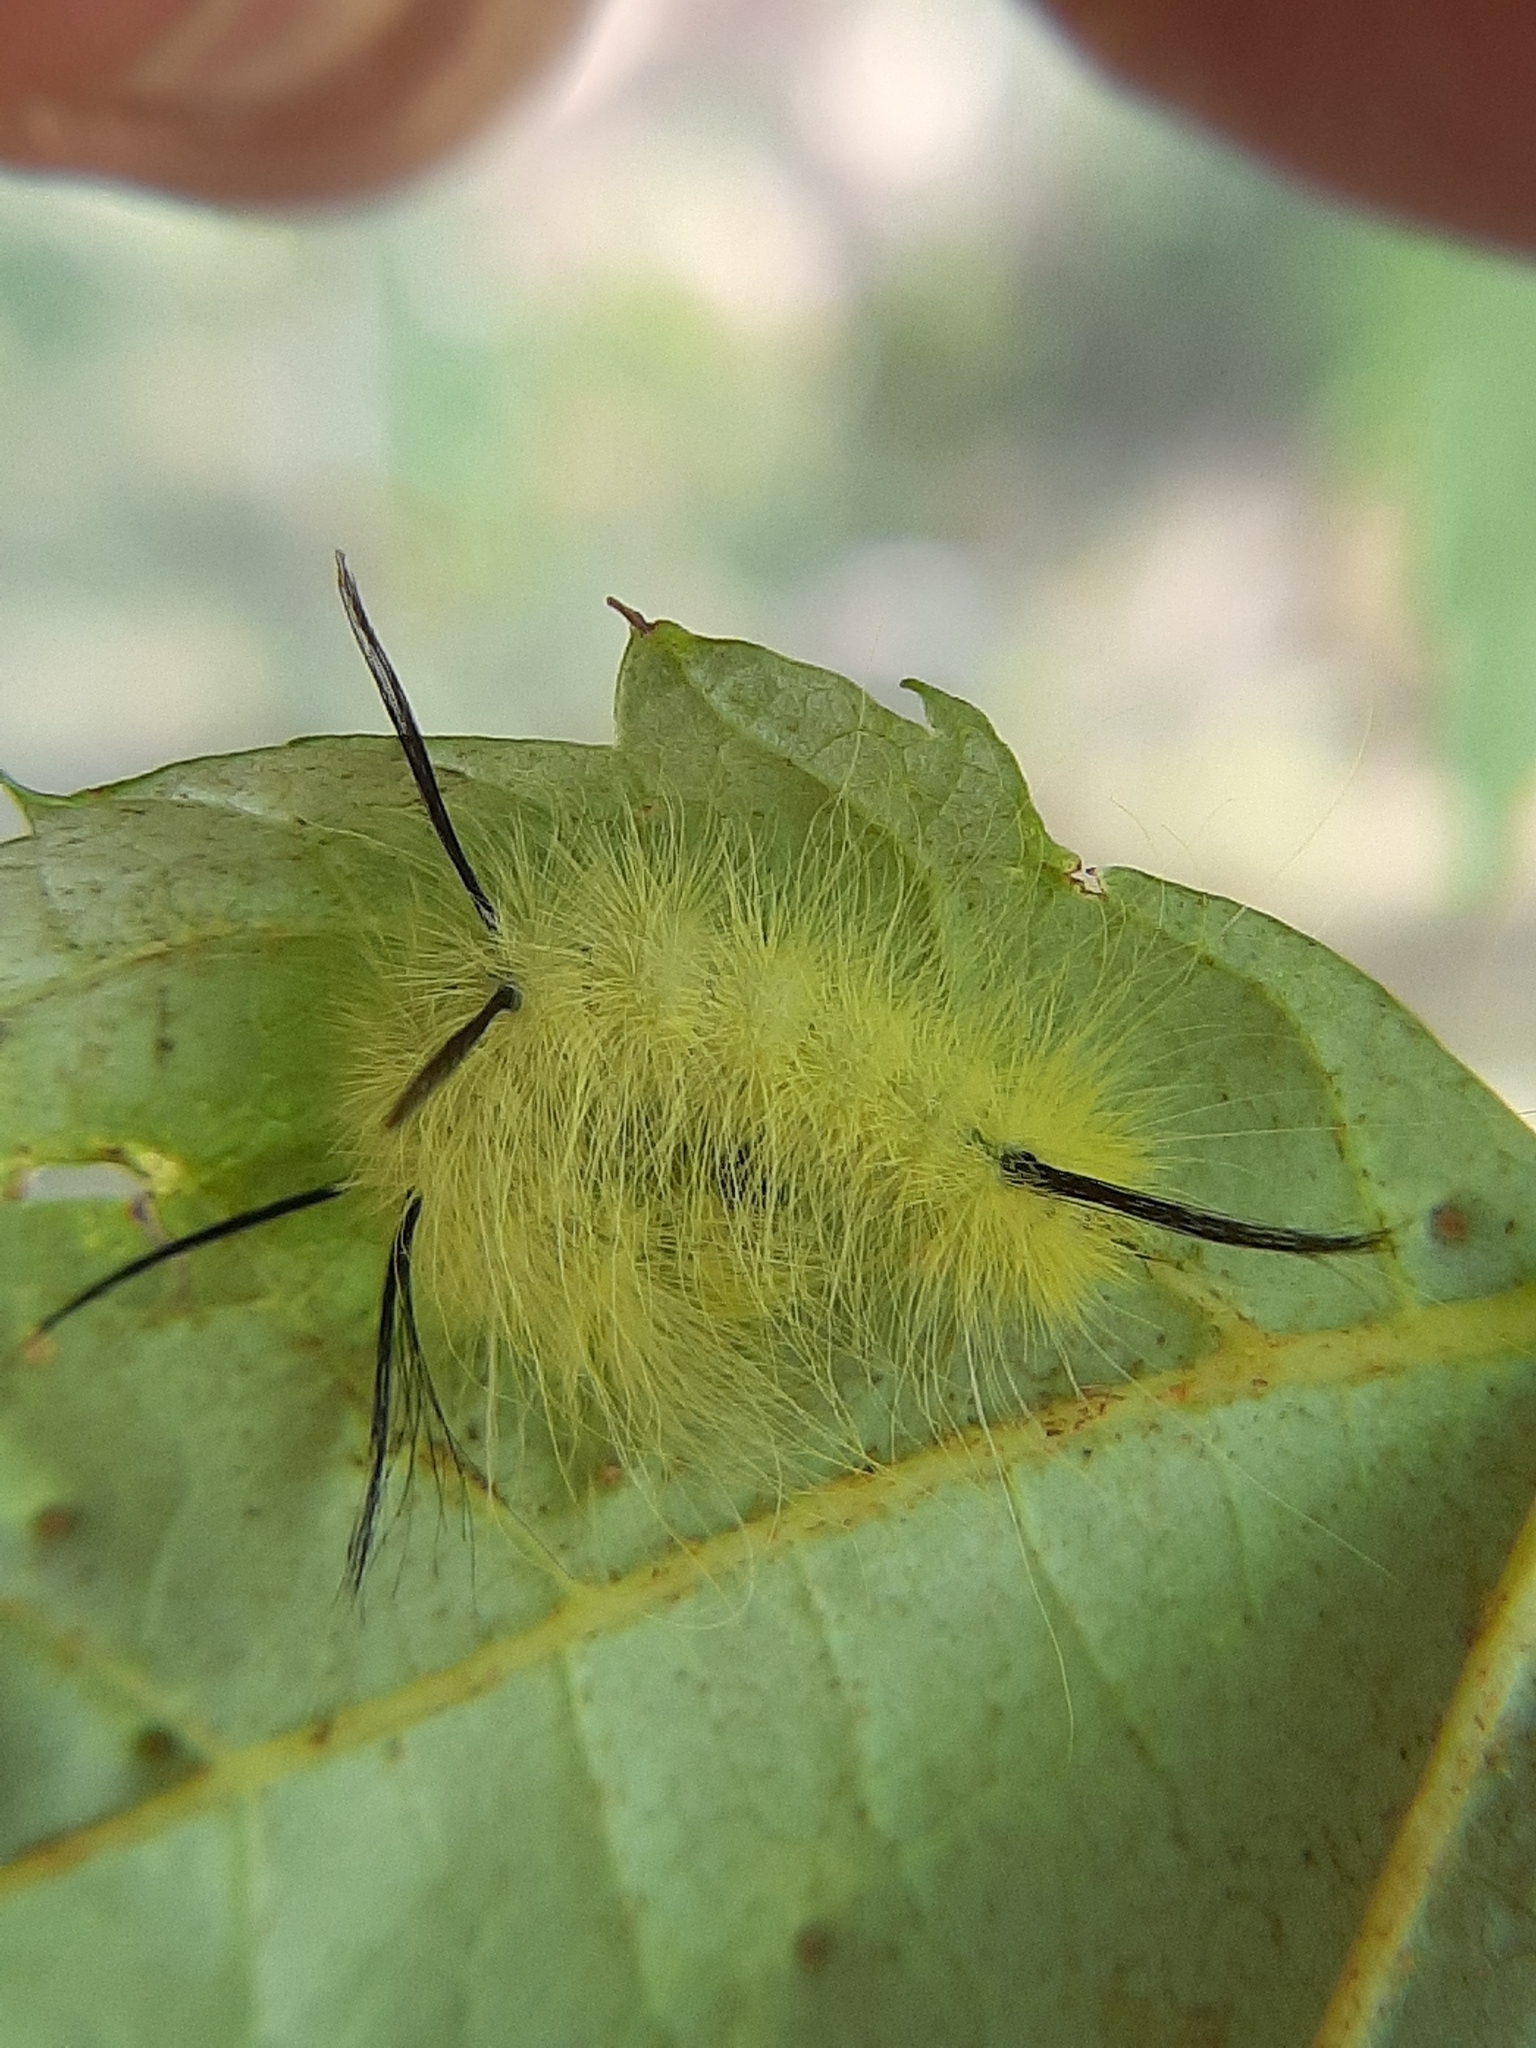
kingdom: Animalia
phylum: Arthropoda
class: Insecta
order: Lepidoptera
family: Noctuidae
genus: Acronicta
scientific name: Acronicta americana
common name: American dagger
